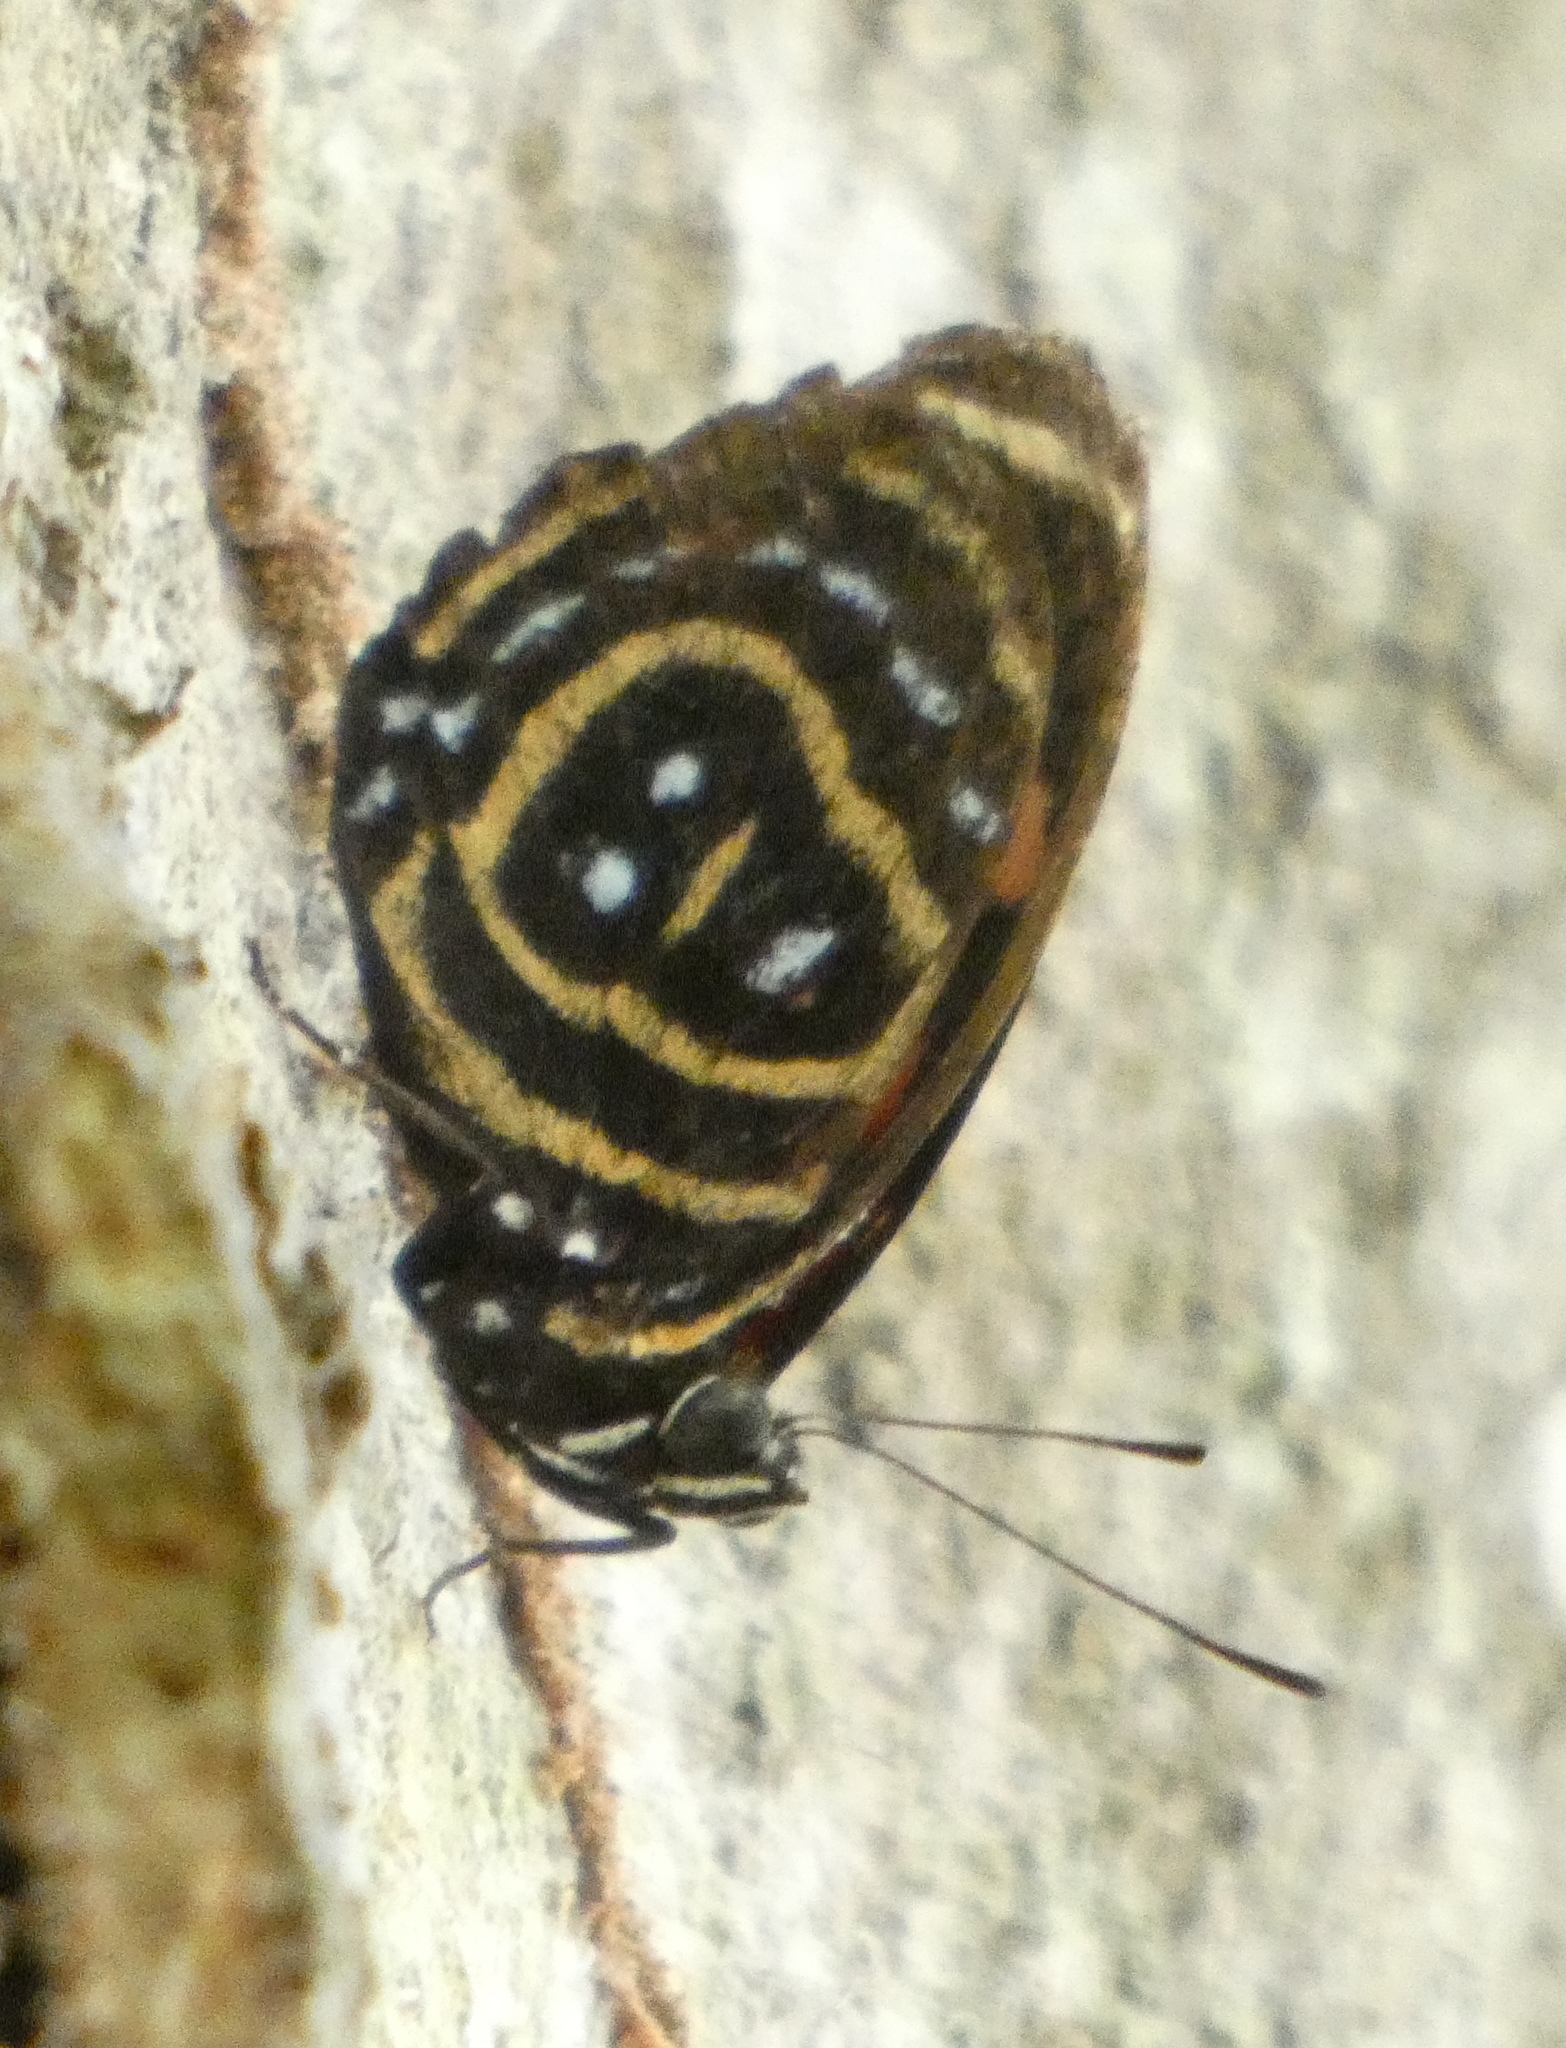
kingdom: Animalia
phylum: Arthropoda
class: Insecta
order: Lepidoptera
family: Nymphalidae
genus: Catagramma
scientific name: Catagramma astarte
